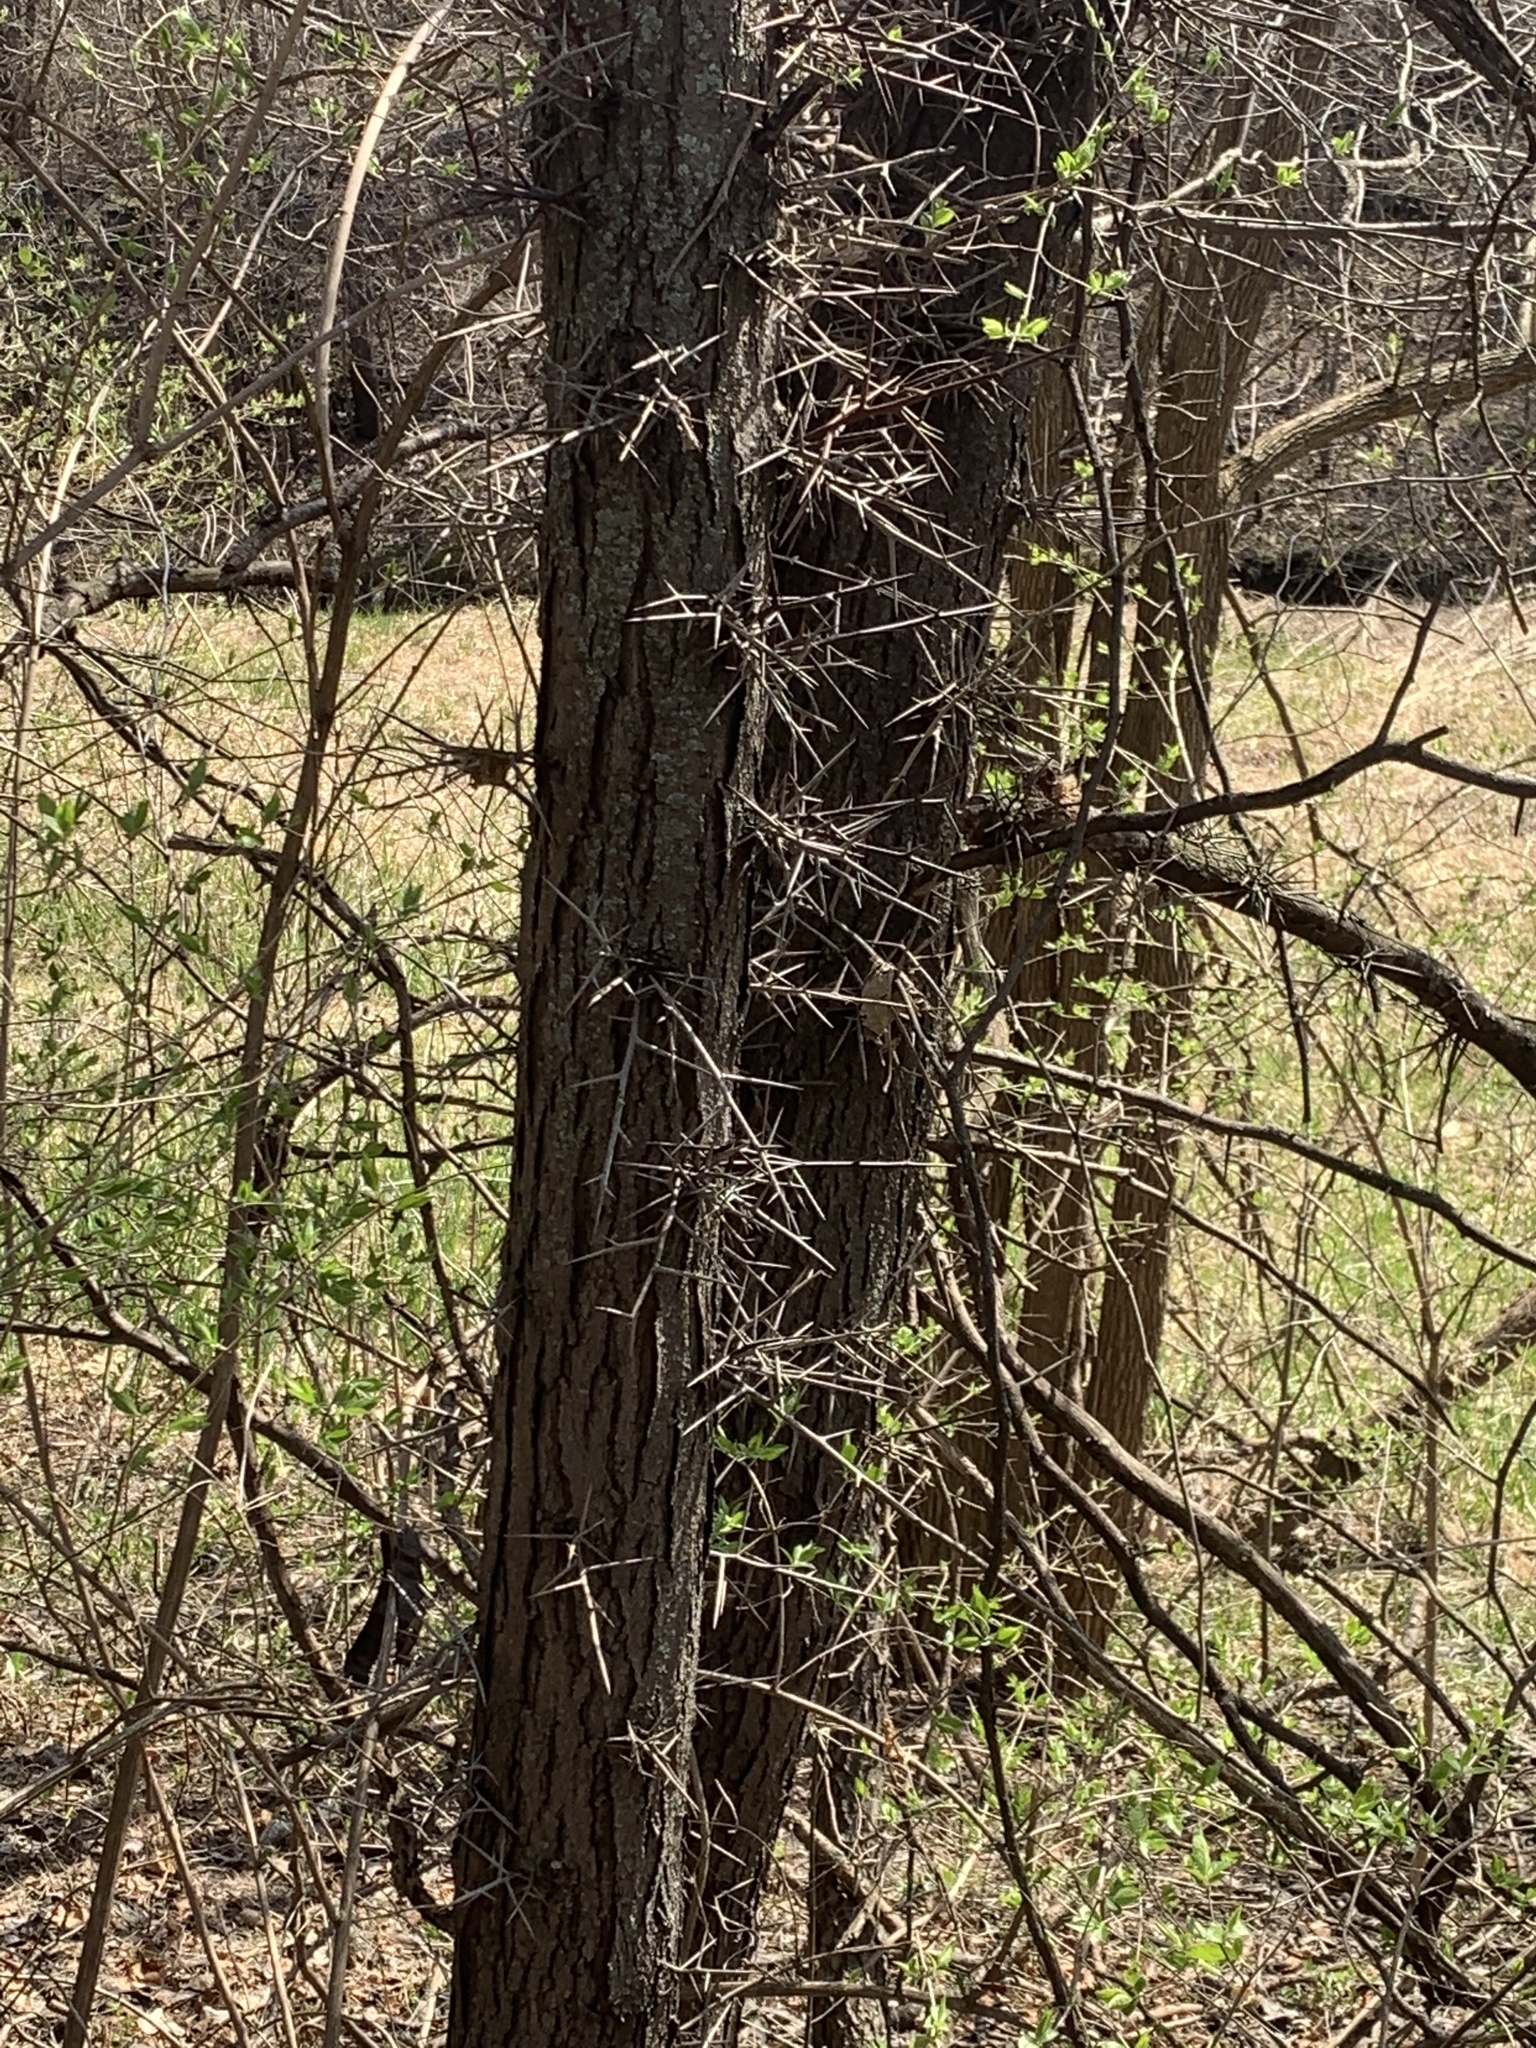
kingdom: Plantae
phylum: Tracheophyta
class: Magnoliopsida
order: Fabales
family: Fabaceae
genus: Gleditsia
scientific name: Gleditsia triacanthos
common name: Common honeylocust
